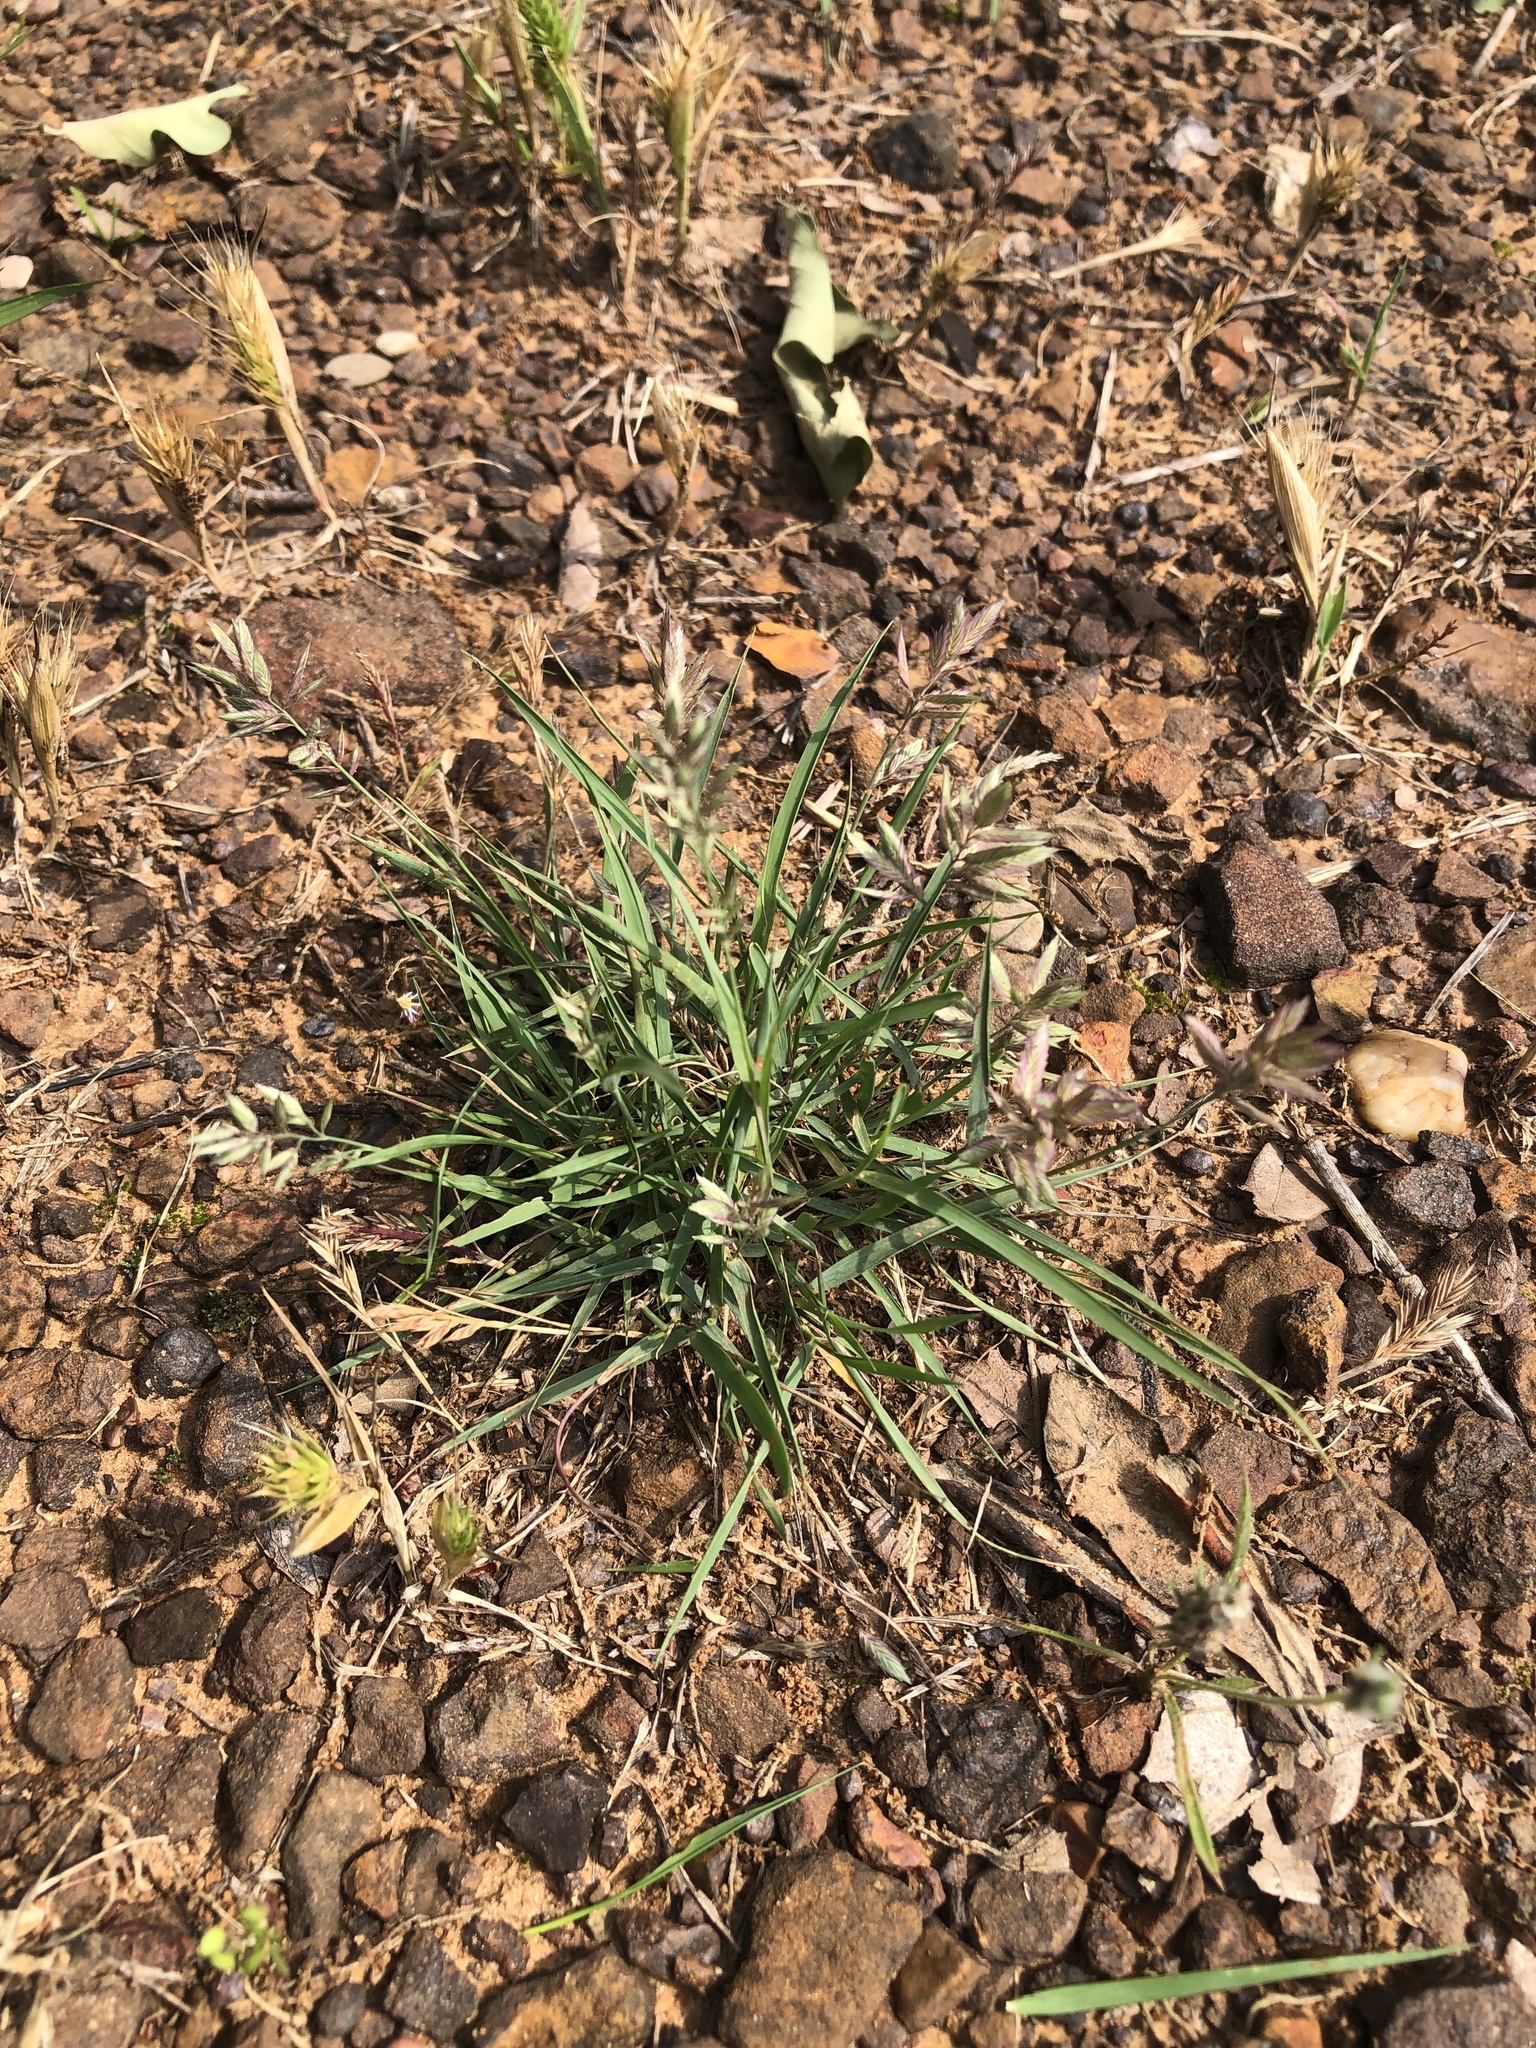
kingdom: Plantae
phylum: Tracheophyta
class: Liliopsida
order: Poales
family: Poaceae
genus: Eragrostis
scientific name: Eragrostis secundiflora
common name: Red love grass
